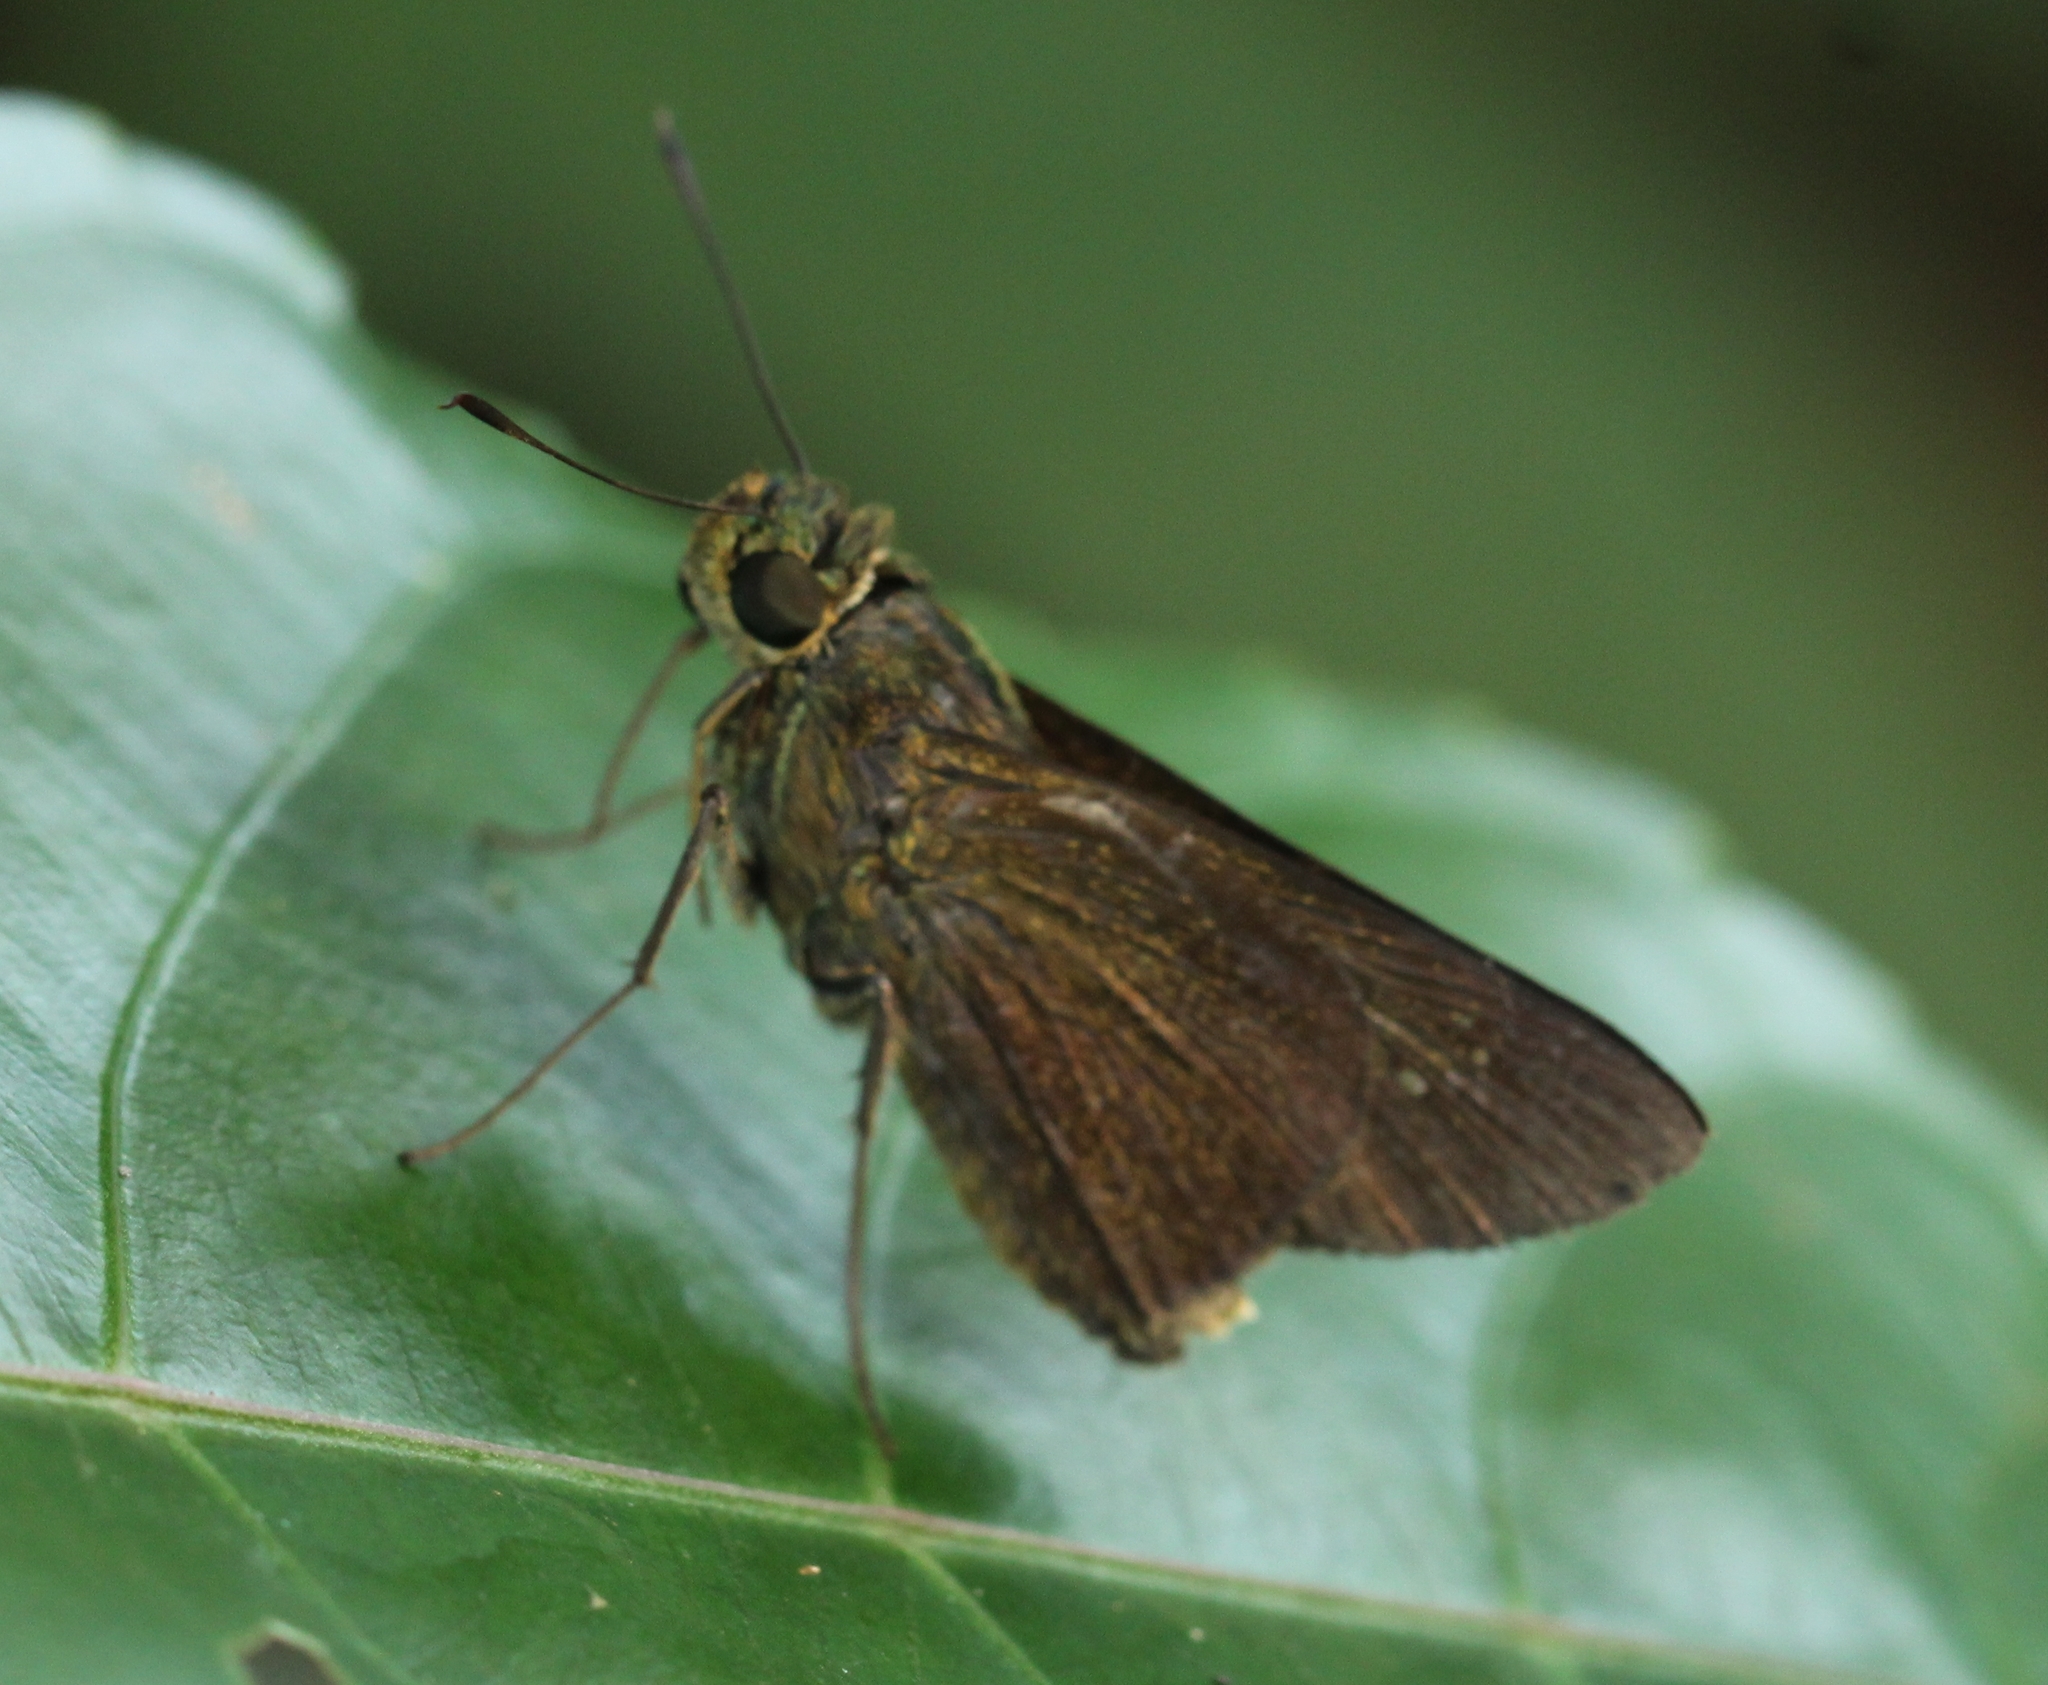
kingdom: Animalia
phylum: Arthropoda
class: Insecta
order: Lepidoptera
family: Hesperiidae
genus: Baoris
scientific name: Baoris farri
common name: Paintbrush swift
